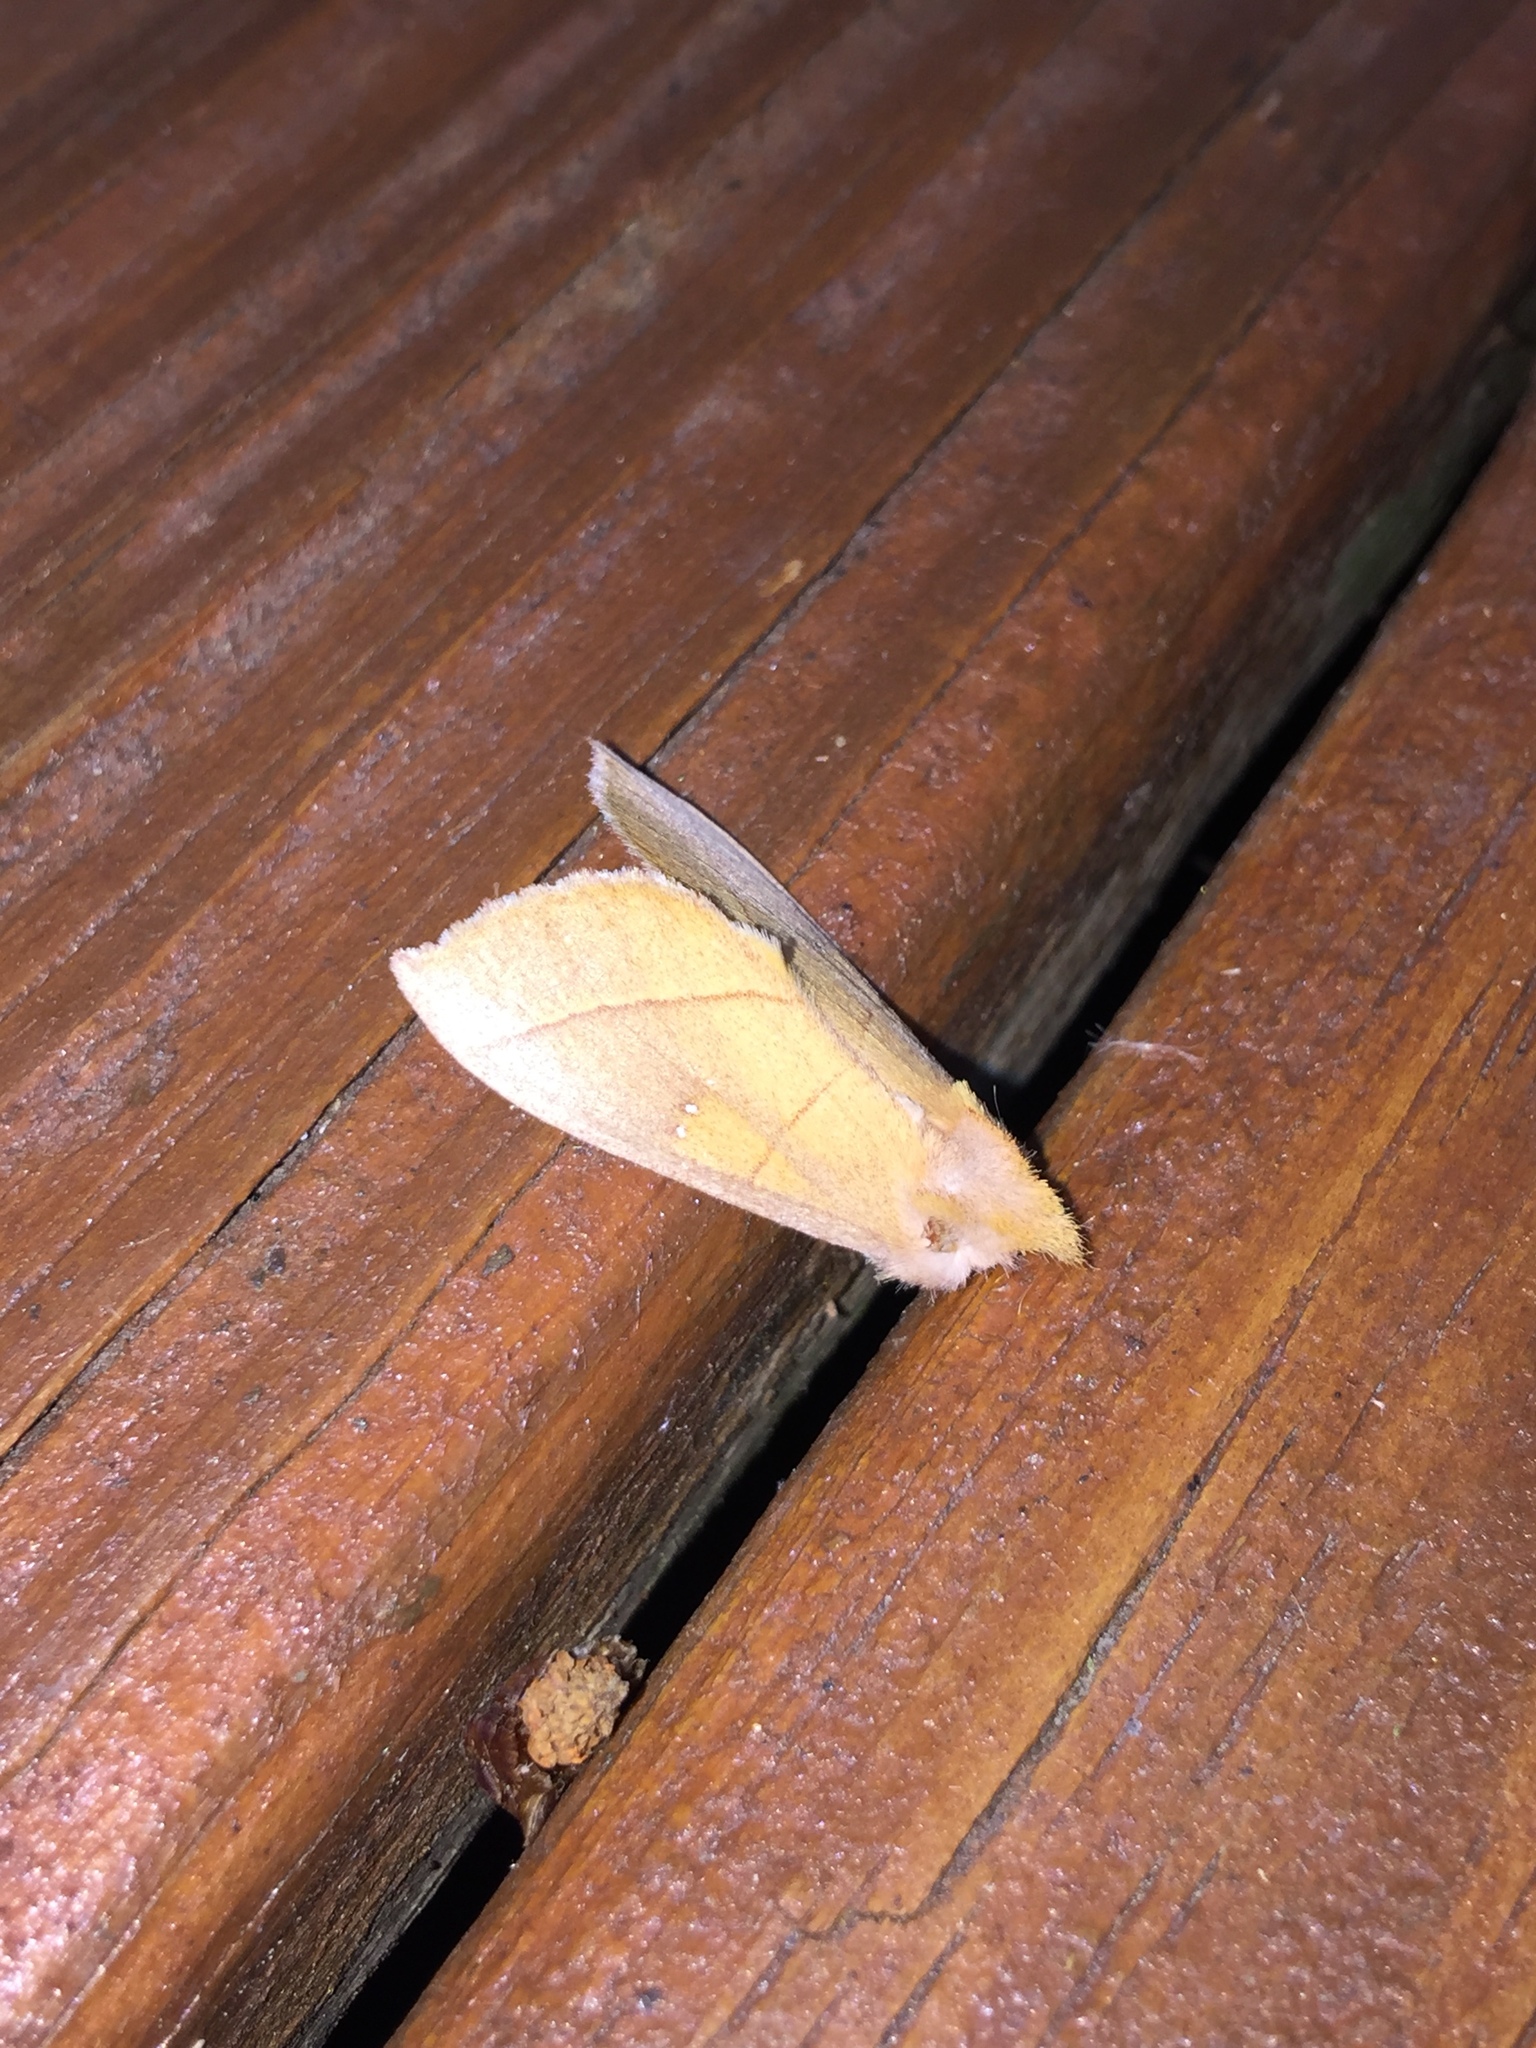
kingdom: Animalia
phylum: Arthropoda
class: Insecta
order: Lepidoptera
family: Notodontidae
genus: Nadata
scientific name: Nadata gibbosa
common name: White-dotted prominent
